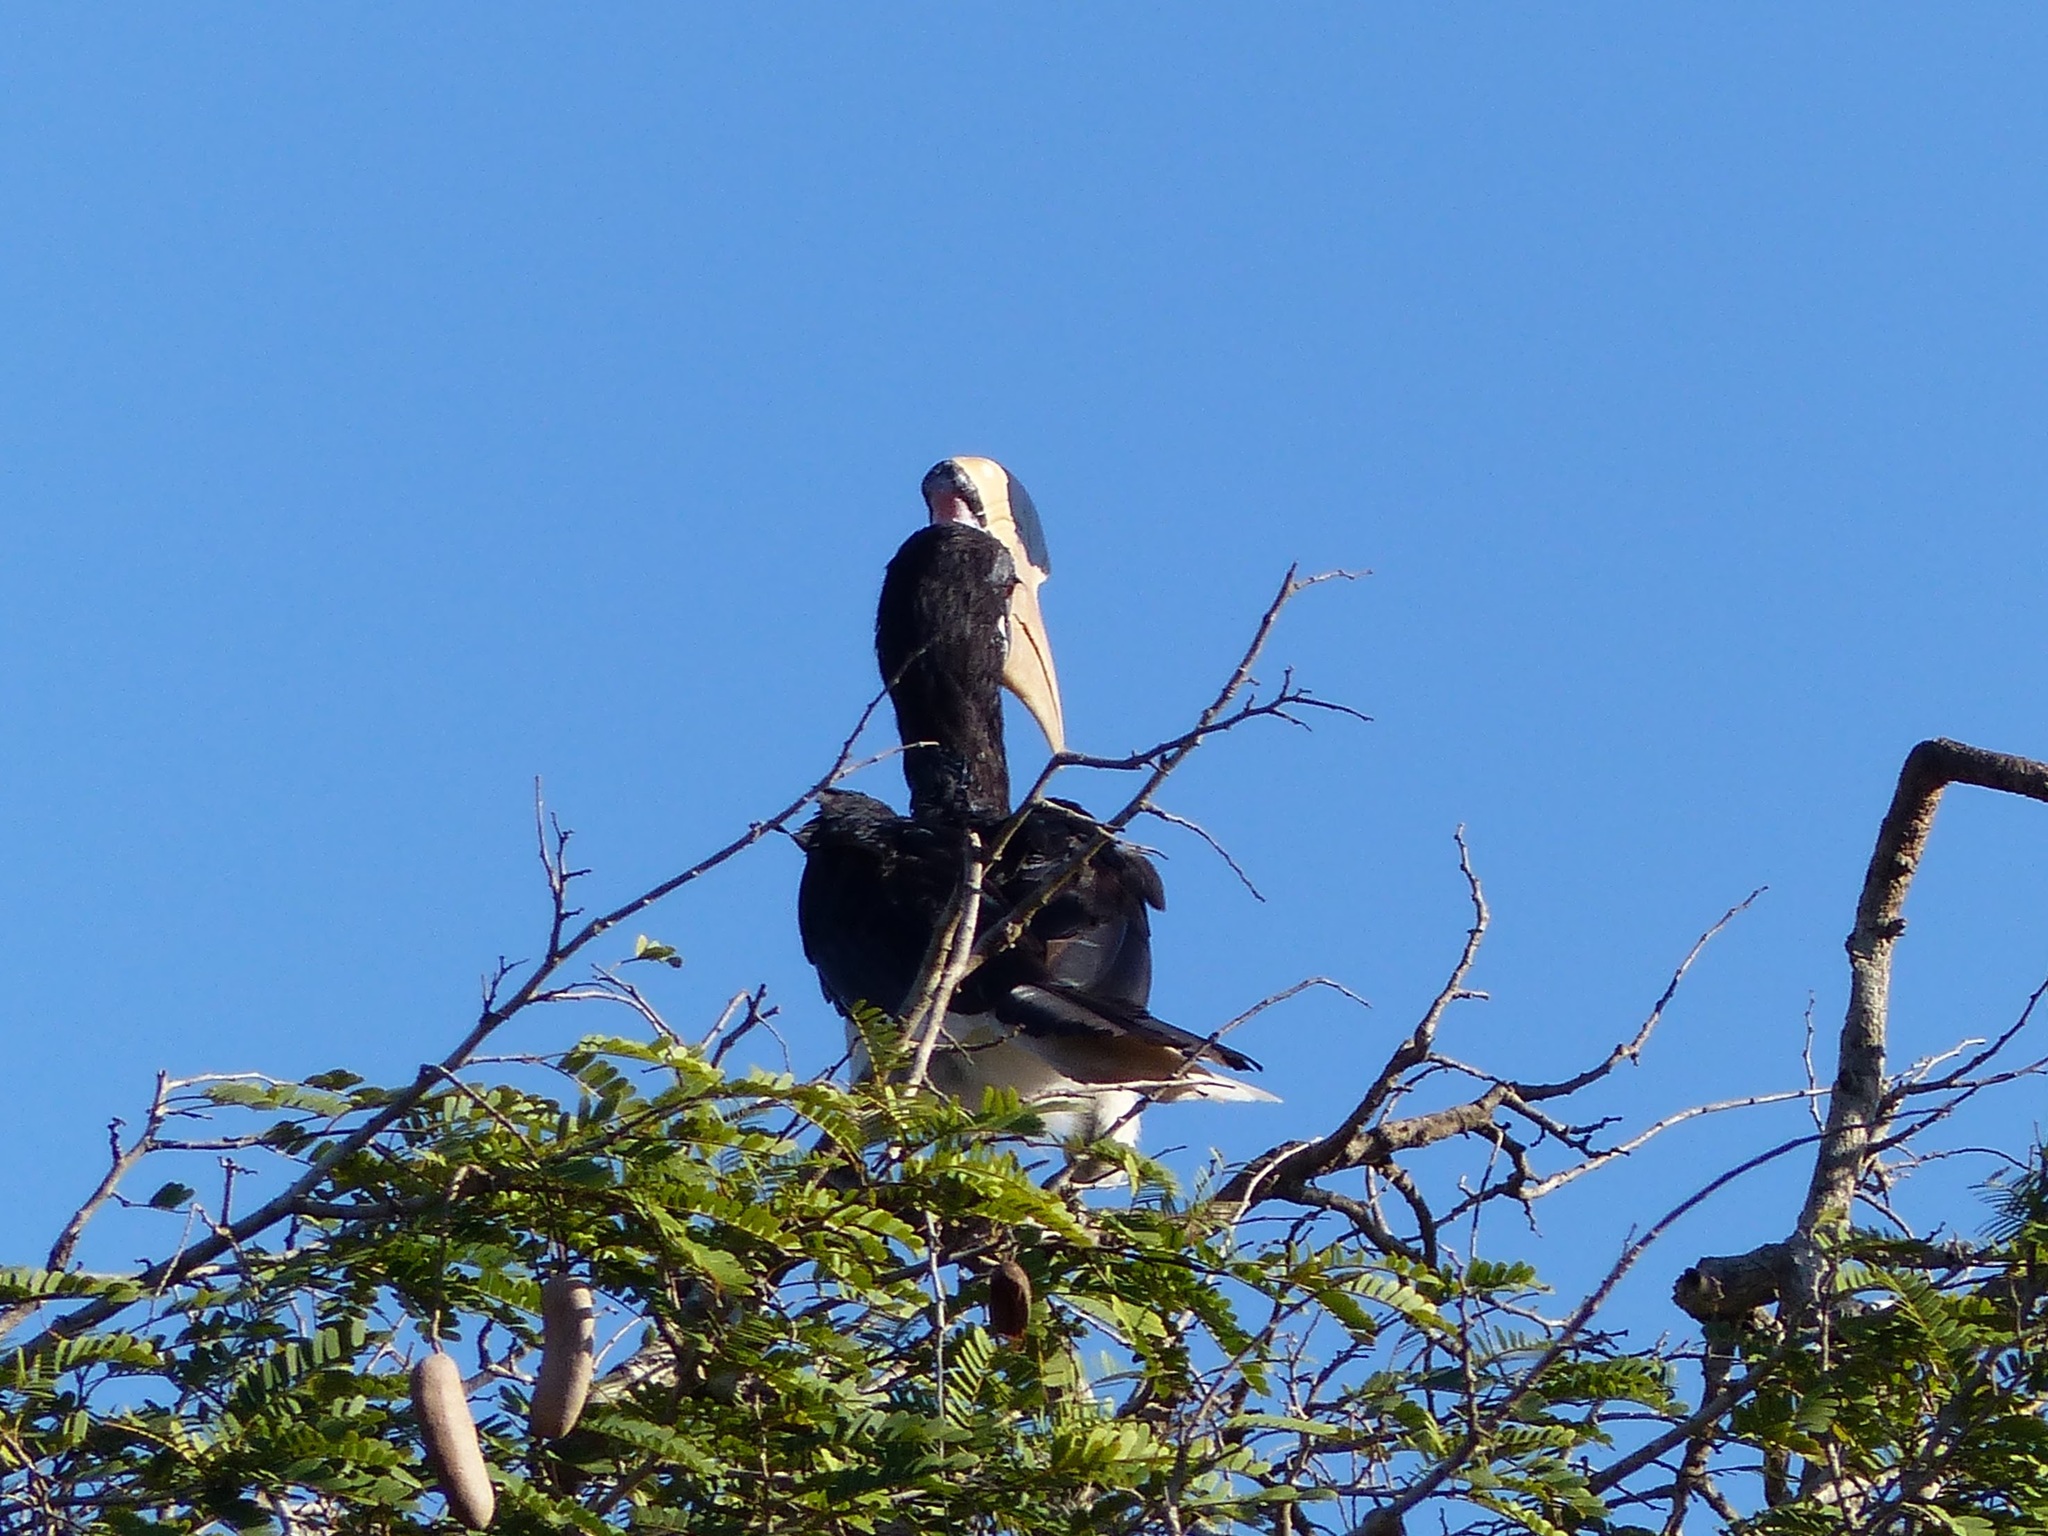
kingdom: Animalia
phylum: Chordata
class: Aves
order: Bucerotiformes
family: Bucerotidae
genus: Anthracoceros
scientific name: Anthracoceros coronatus
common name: Malabar pied hornbill
